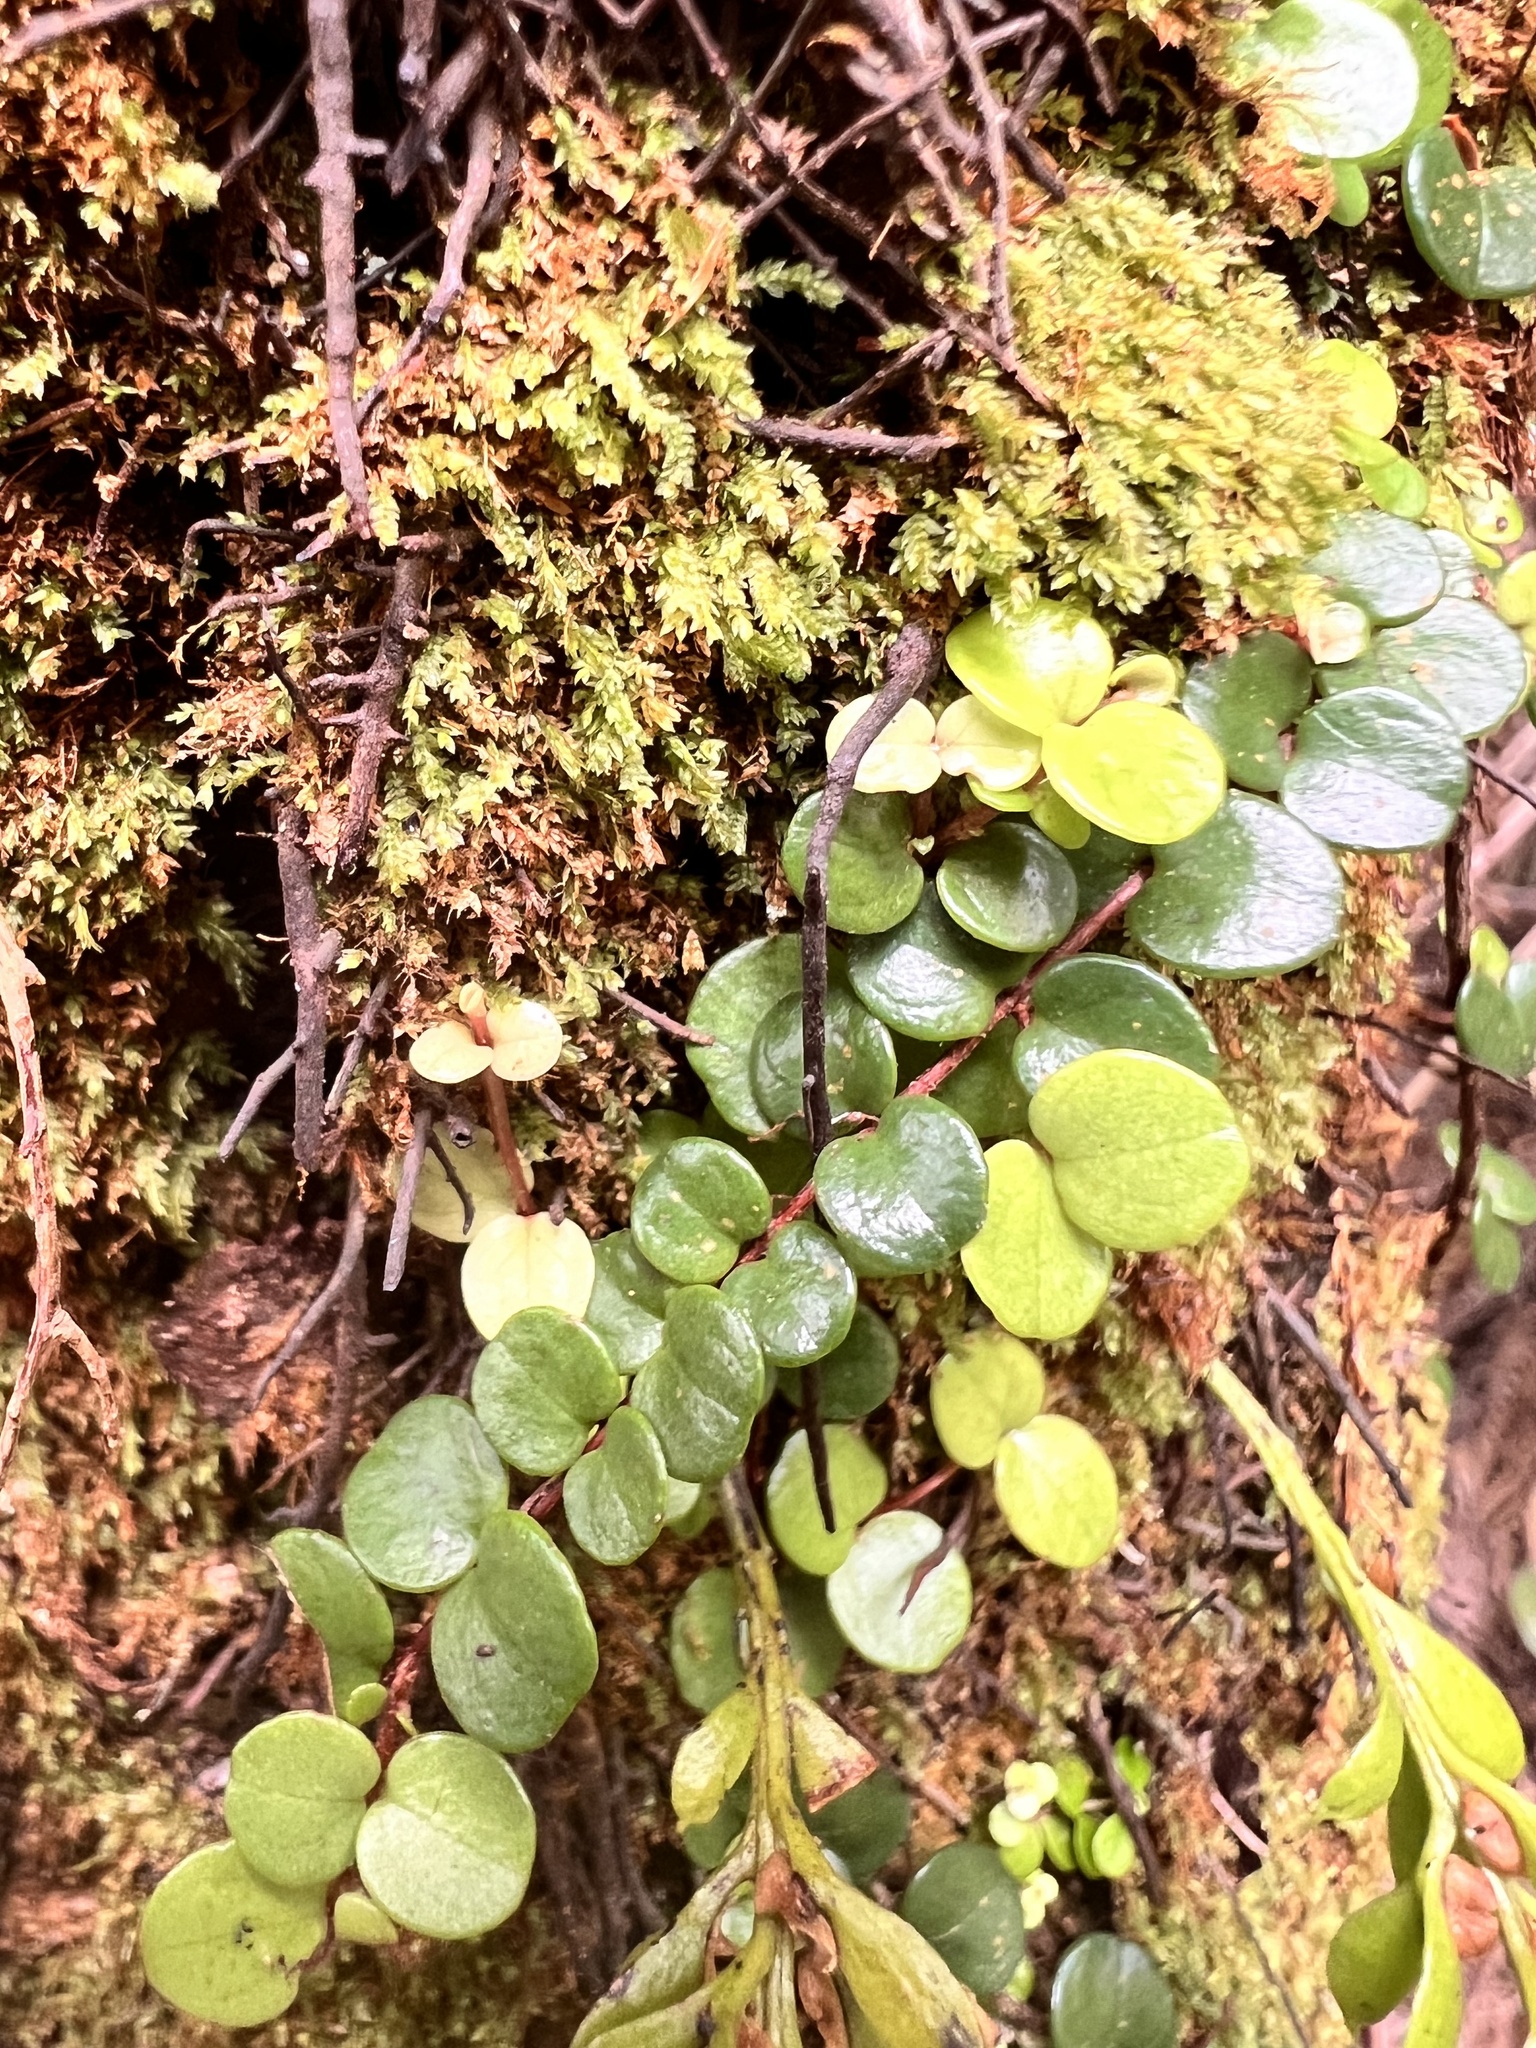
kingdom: Plantae
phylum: Tracheophyta
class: Magnoliopsida
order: Myrtales
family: Myrtaceae
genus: Metrosideros
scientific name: Metrosideros perforata
